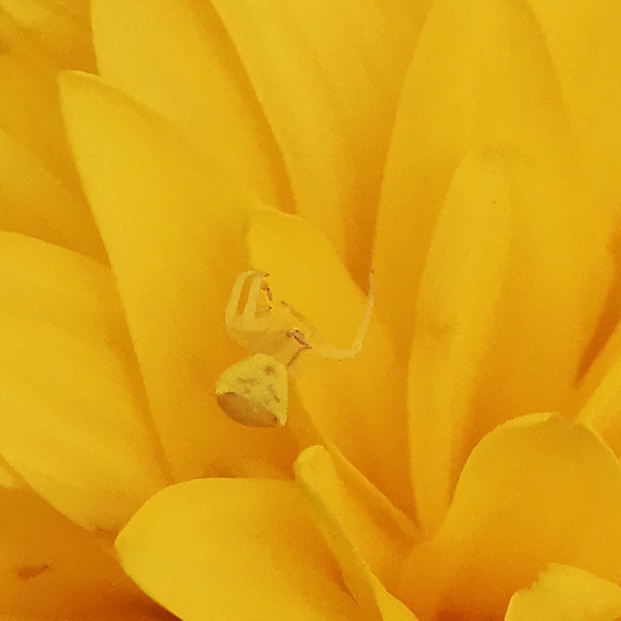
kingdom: Animalia
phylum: Arthropoda
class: Arachnida
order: Araneae
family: Thomisidae
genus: Thomisus
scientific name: Thomisus onustus
